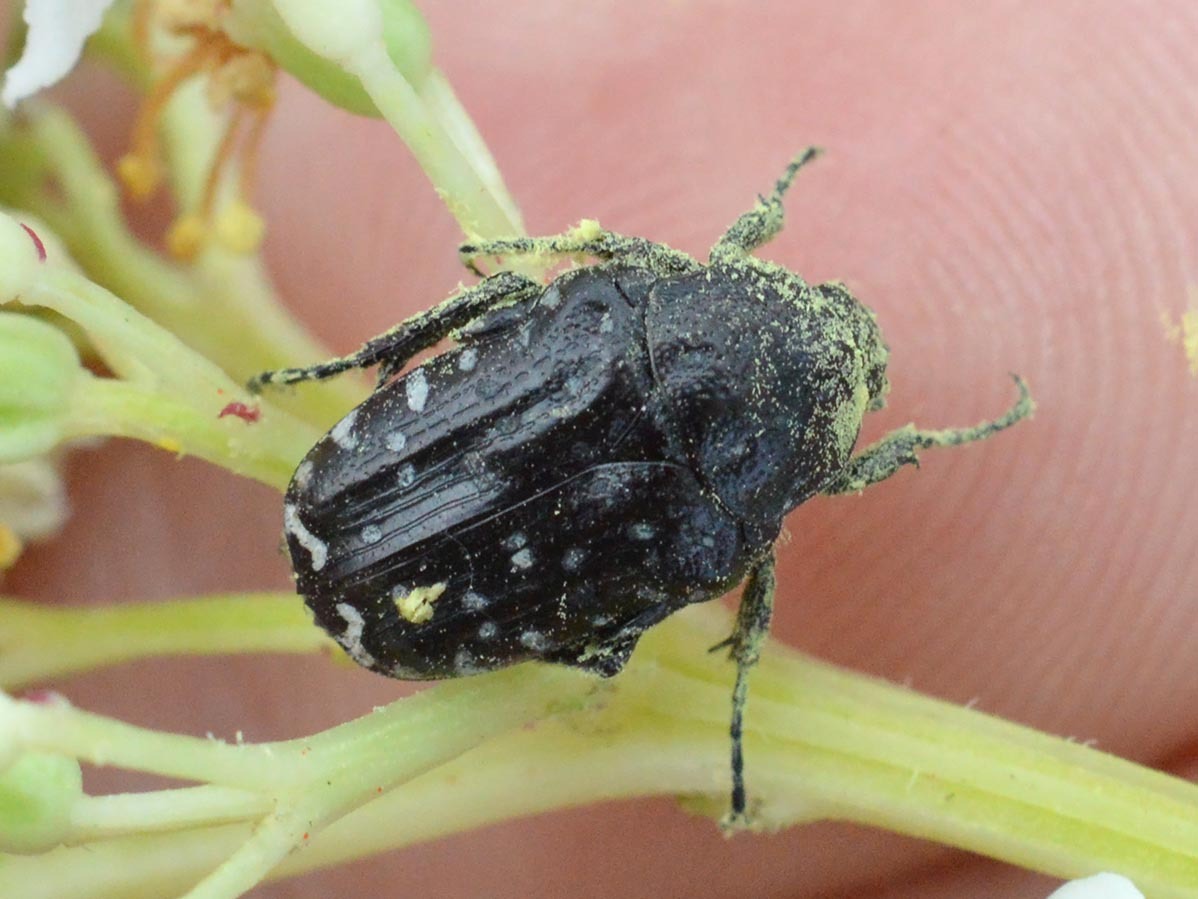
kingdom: Animalia
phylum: Arthropoda
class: Insecta
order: Coleoptera
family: Scarabaeidae
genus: Oxythyrea
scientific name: Oxythyrea funesta
